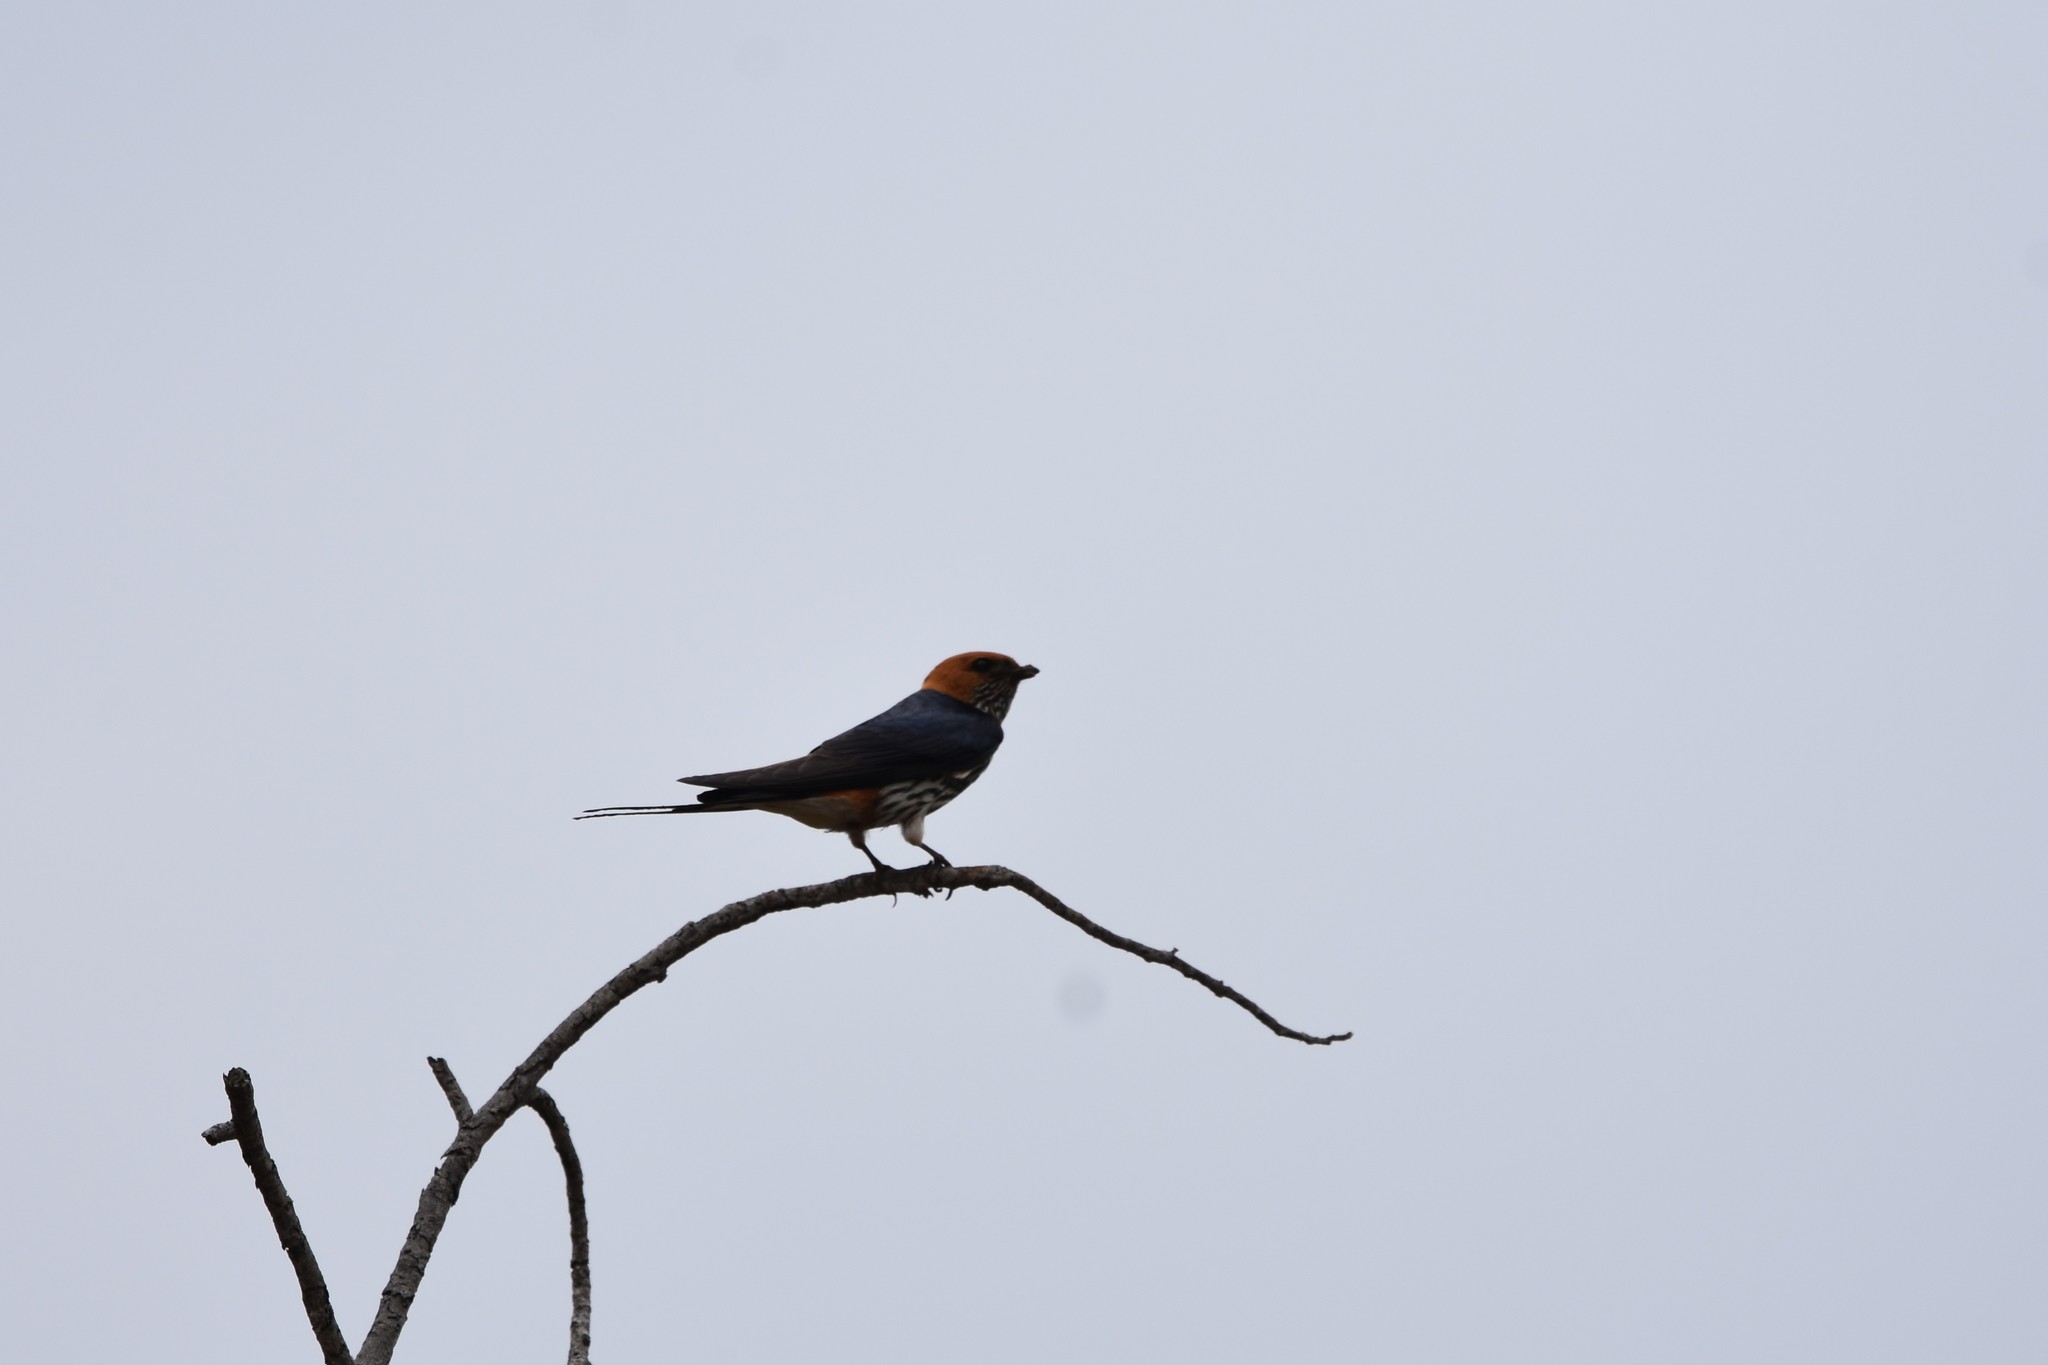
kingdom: Animalia
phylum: Chordata
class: Aves
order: Passeriformes
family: Hirundinidae
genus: Cecropis
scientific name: Cecropis abyssinica
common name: Lesser striped-swallow
